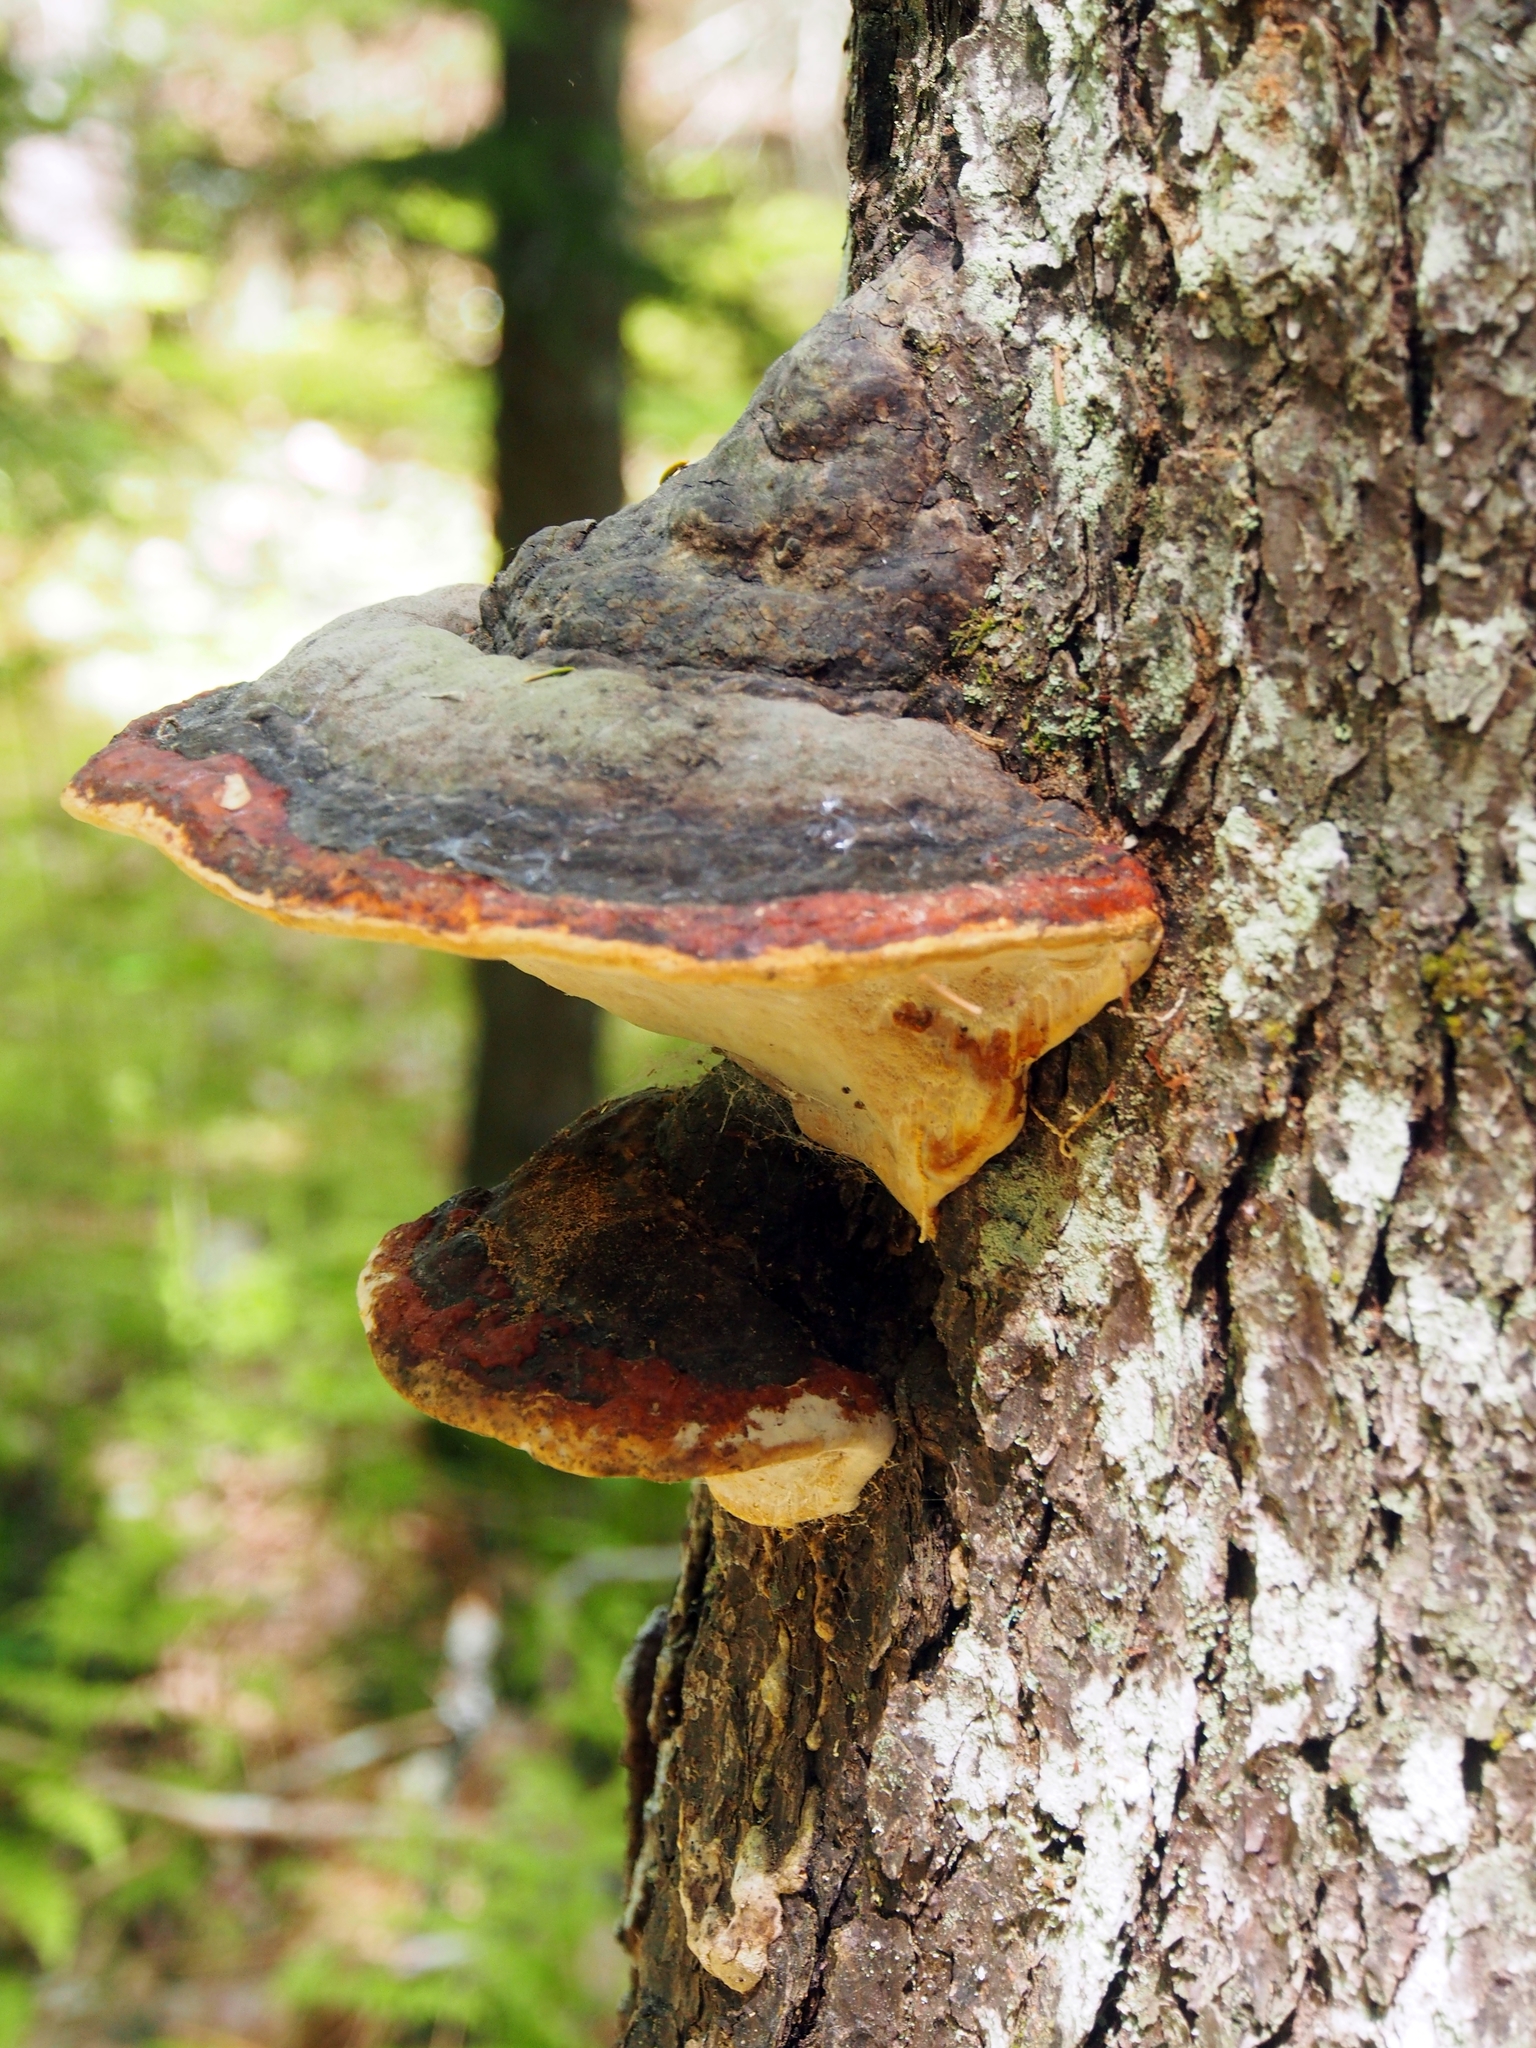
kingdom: Fungi
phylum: Basidiomycota
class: Agaricomycetes
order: Polyporales
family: Fomitopsidaceae
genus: Fomitopsis
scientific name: Fomitopsis mounceae
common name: Northern red belt
